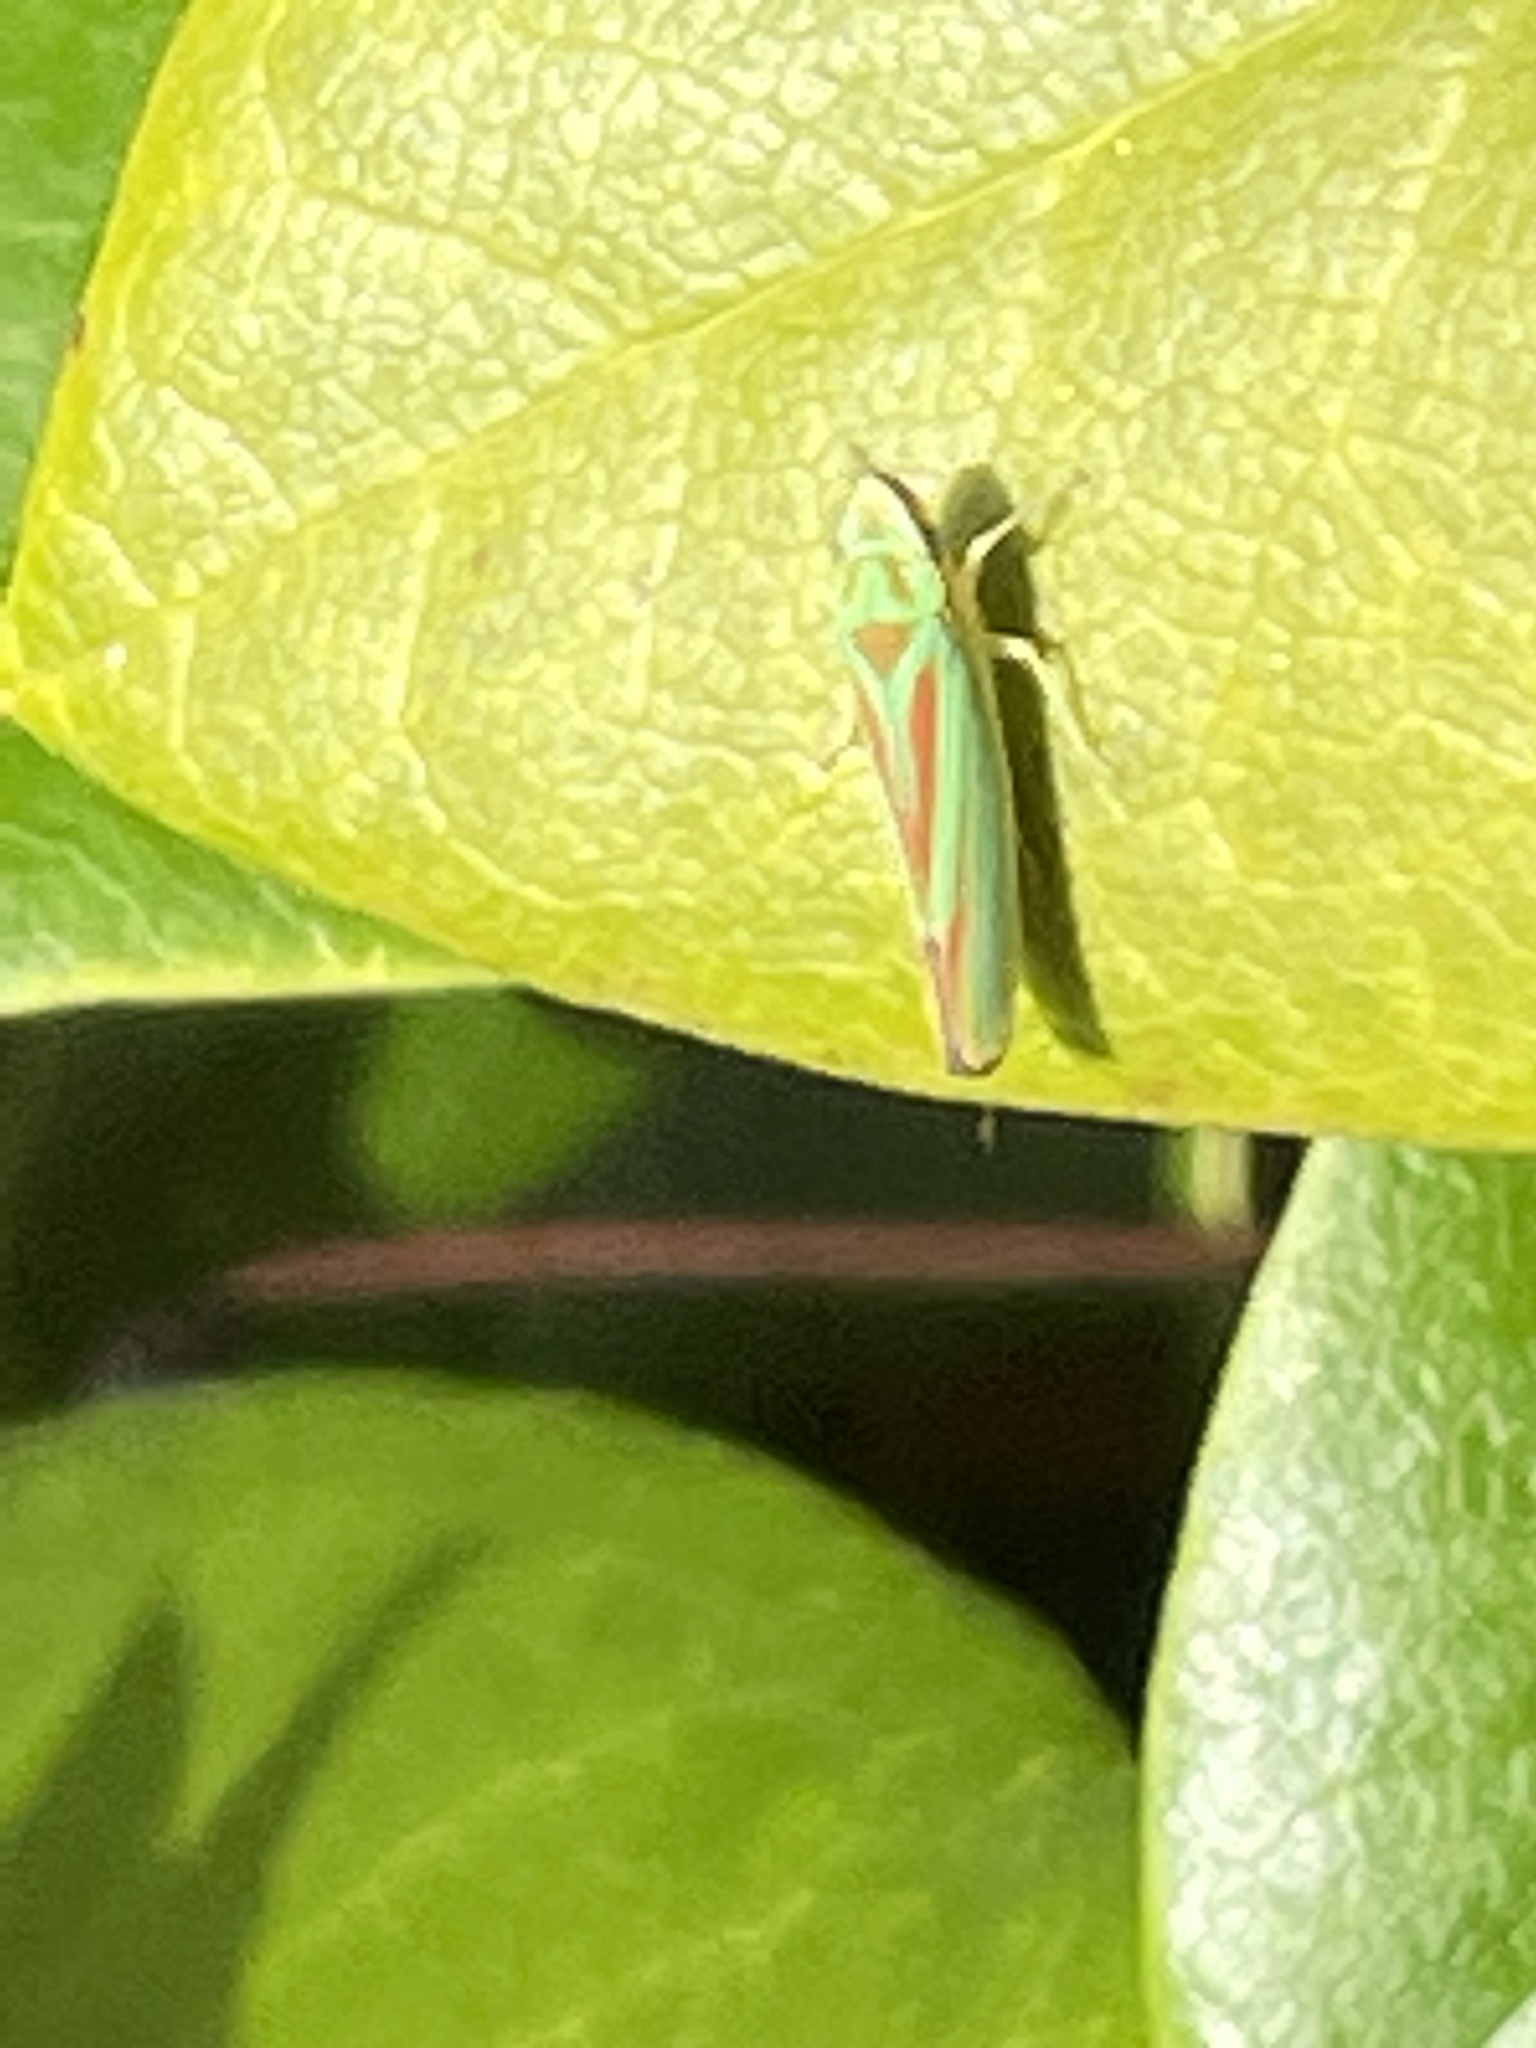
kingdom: Animalia
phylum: Arthropoda
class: Insecta
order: Hemiptera
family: Cicadellidae
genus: Graphocephala
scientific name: Graphocephala fennahi
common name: Rhododendron leafhopper
